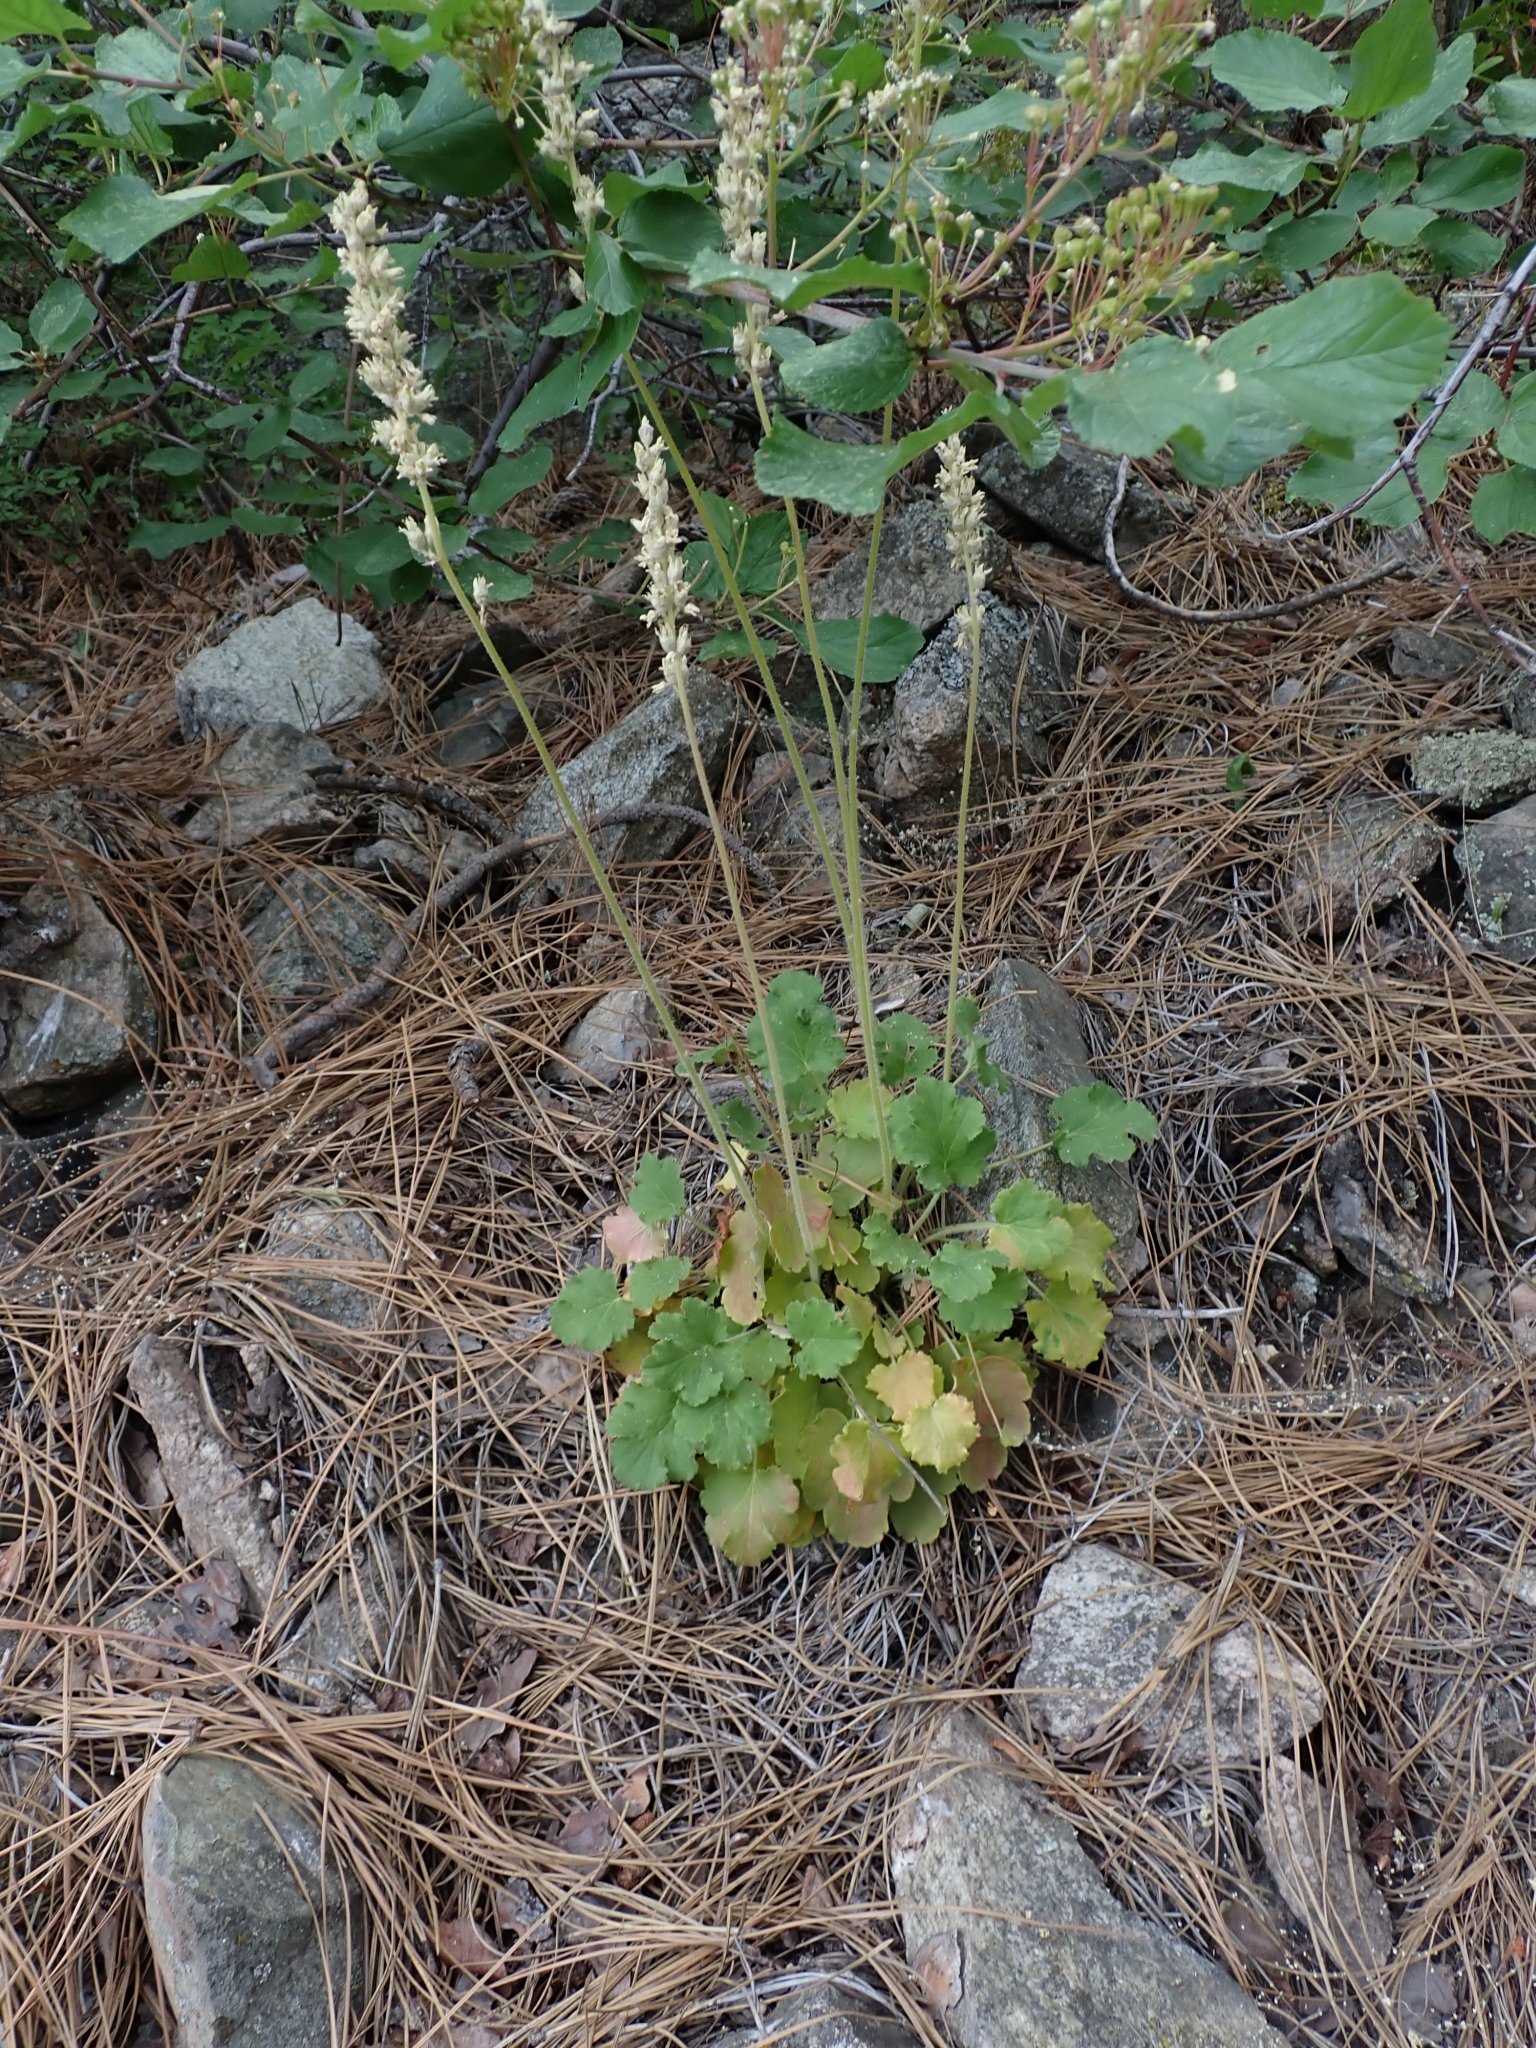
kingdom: Plantae
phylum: Tracheophyta
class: Magnoliopsida
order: Saxifragales
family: Saxifragaceae
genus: Heuchera
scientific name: Heuchera cylindrica
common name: Mat alumroot
